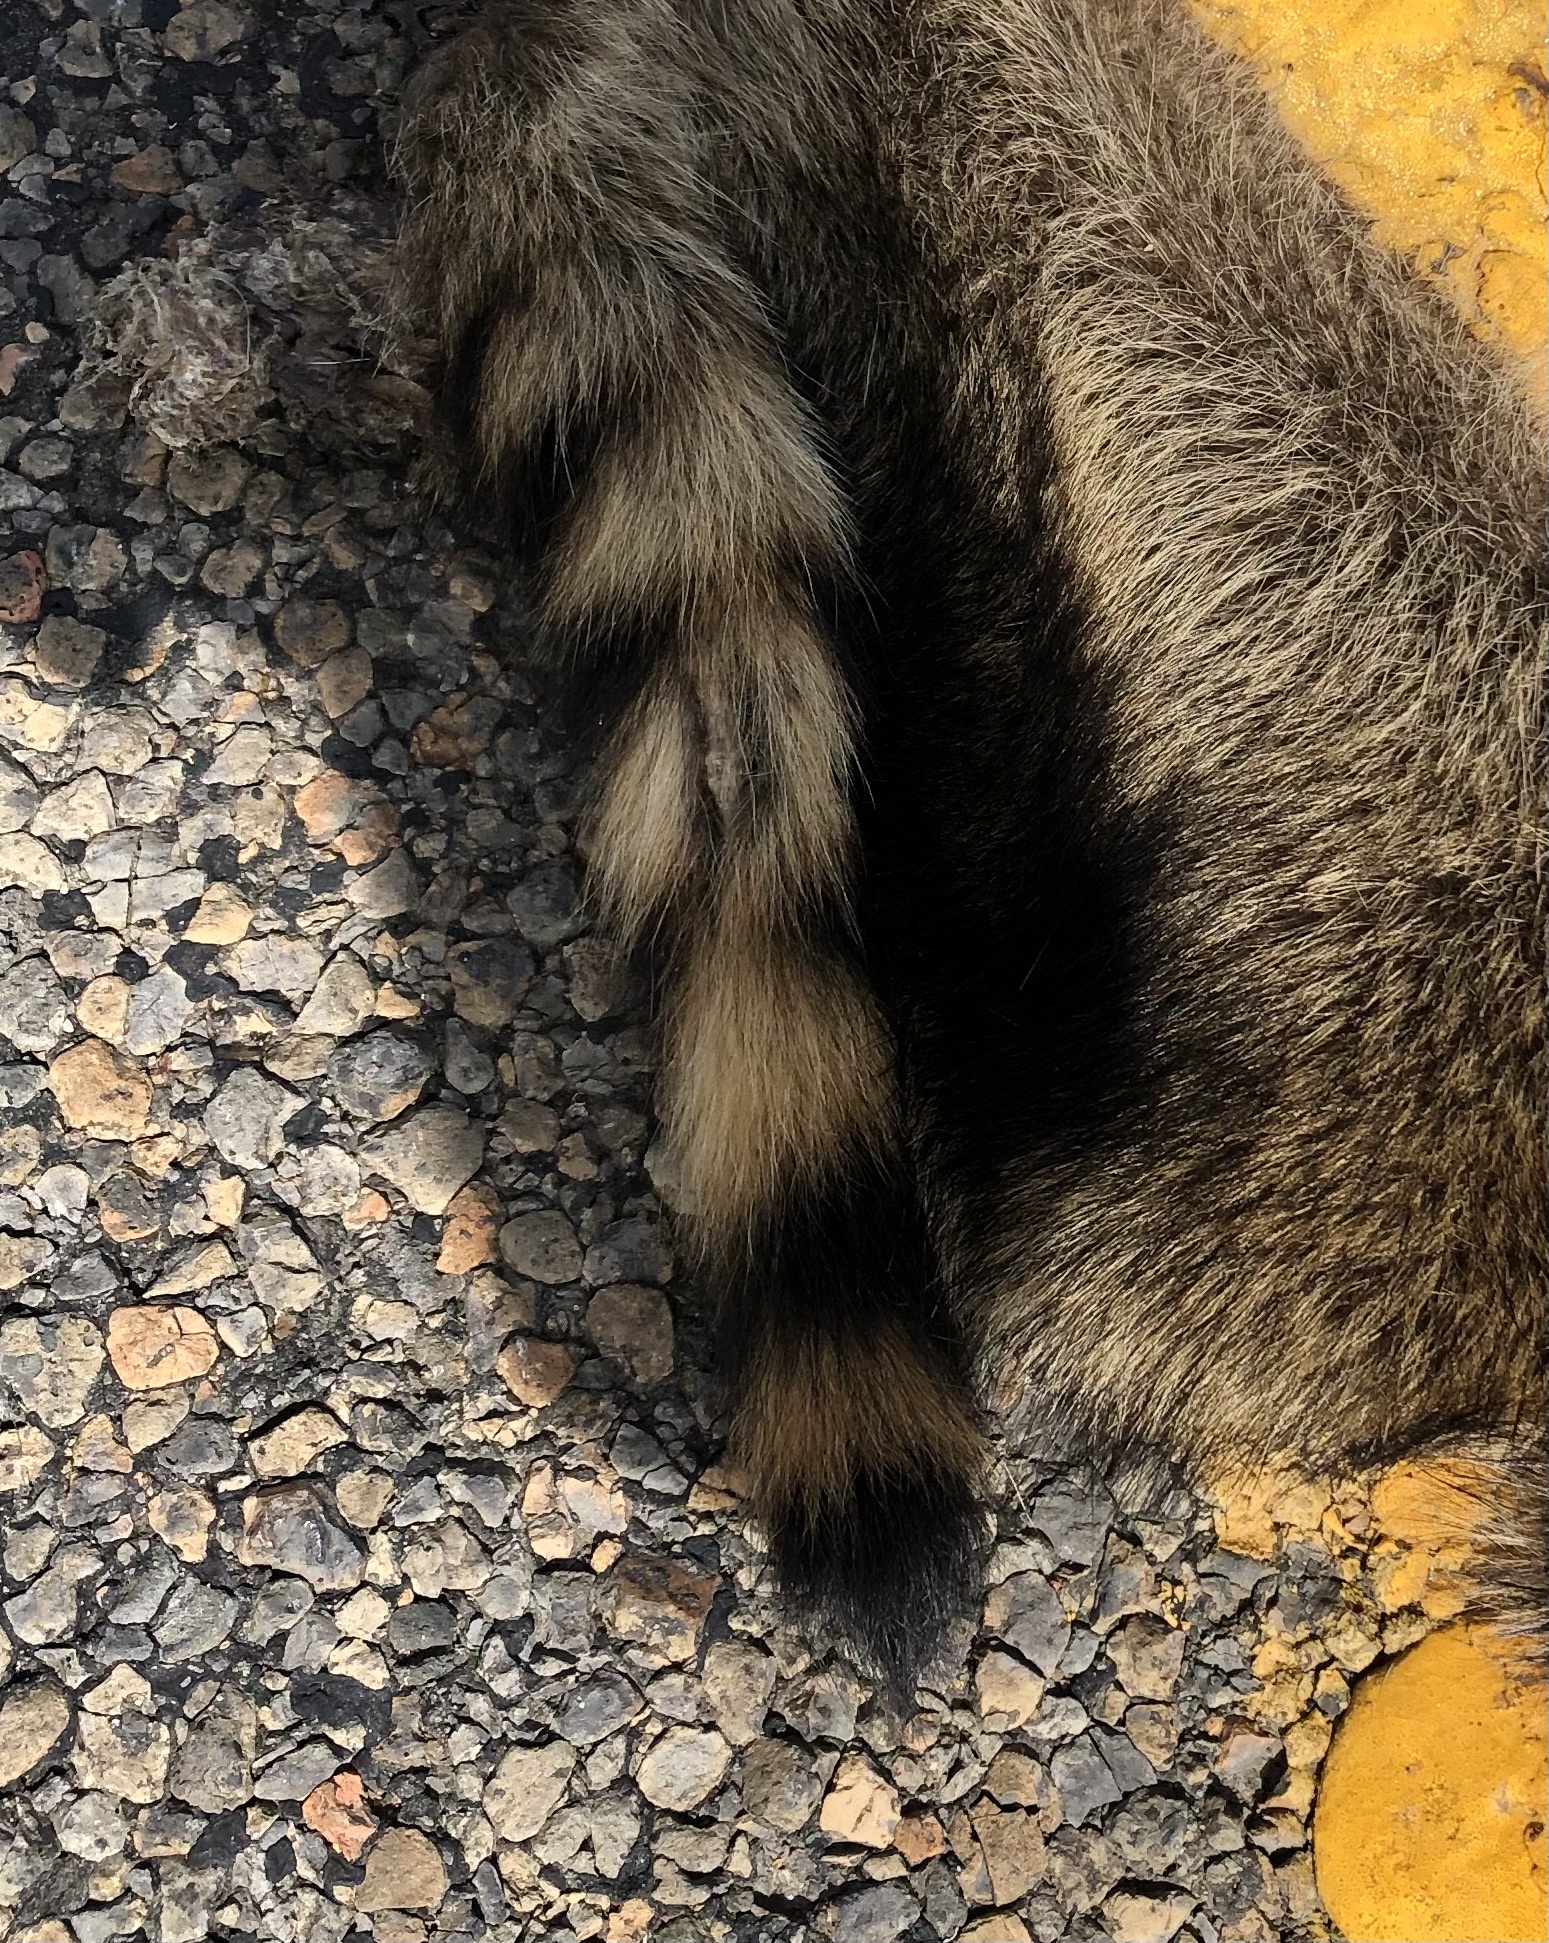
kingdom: Animalia
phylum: Chordata
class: Mammalia
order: Carnivora
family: Procyonidae
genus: Procyon
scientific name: Procyon lotor
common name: Raccoon
